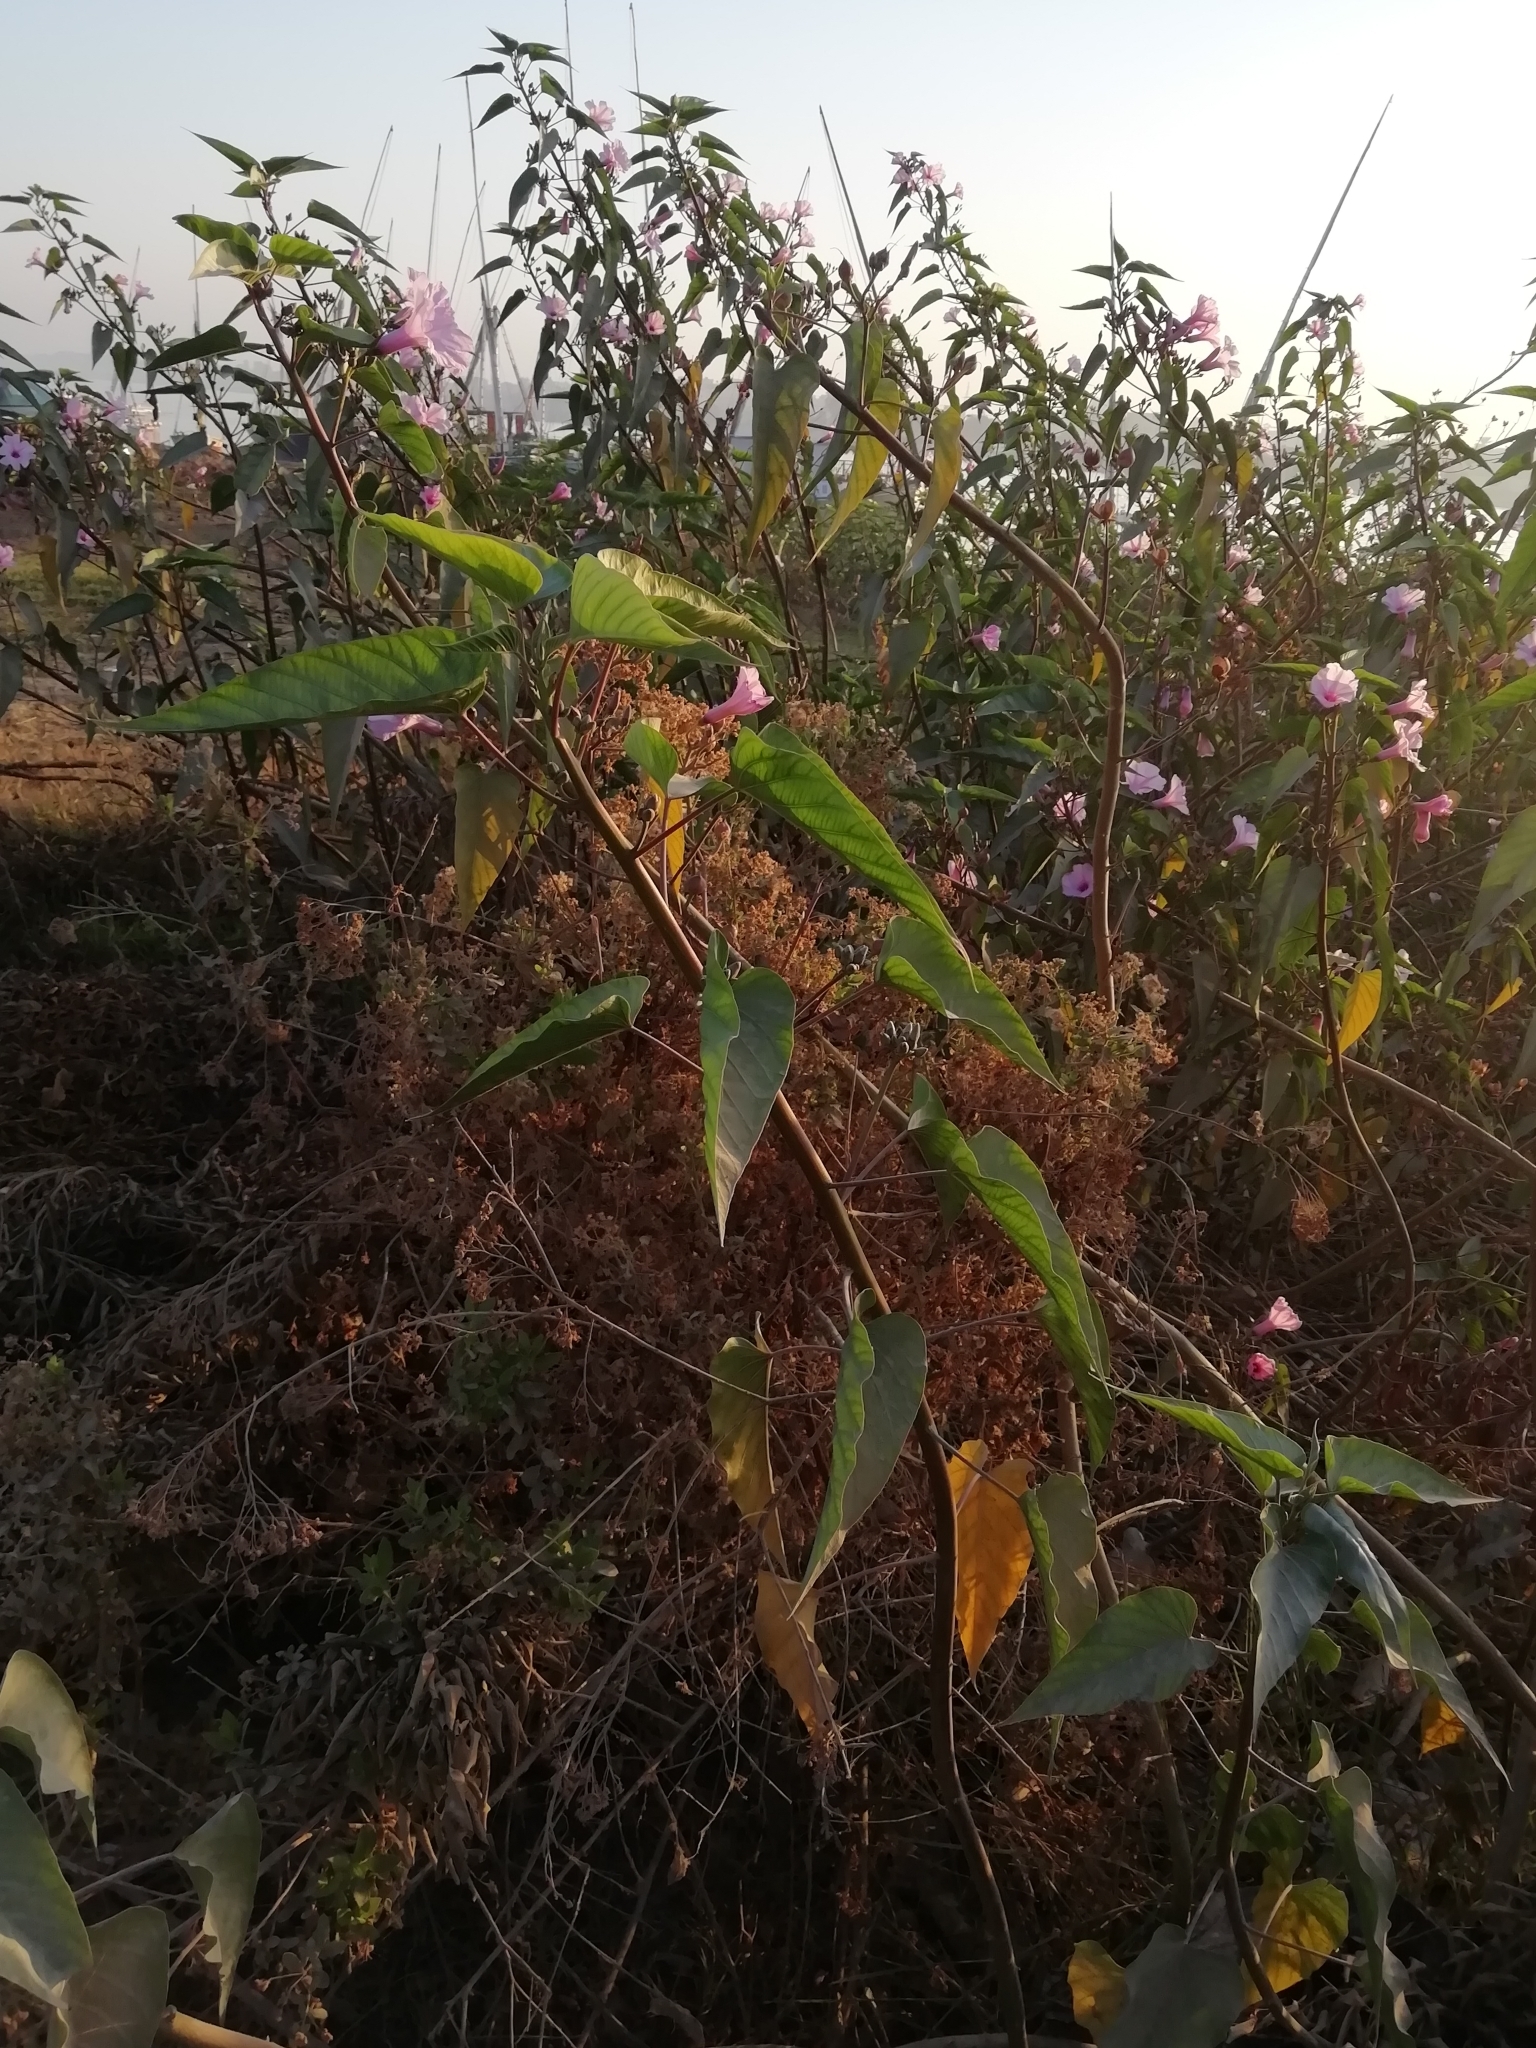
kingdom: Plantae
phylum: Tracheophyta
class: Magnoliopsida
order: Solanales
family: Convolvulaceae
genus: Ipomoea
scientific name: Ipomoea carnea
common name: Morning-glory
